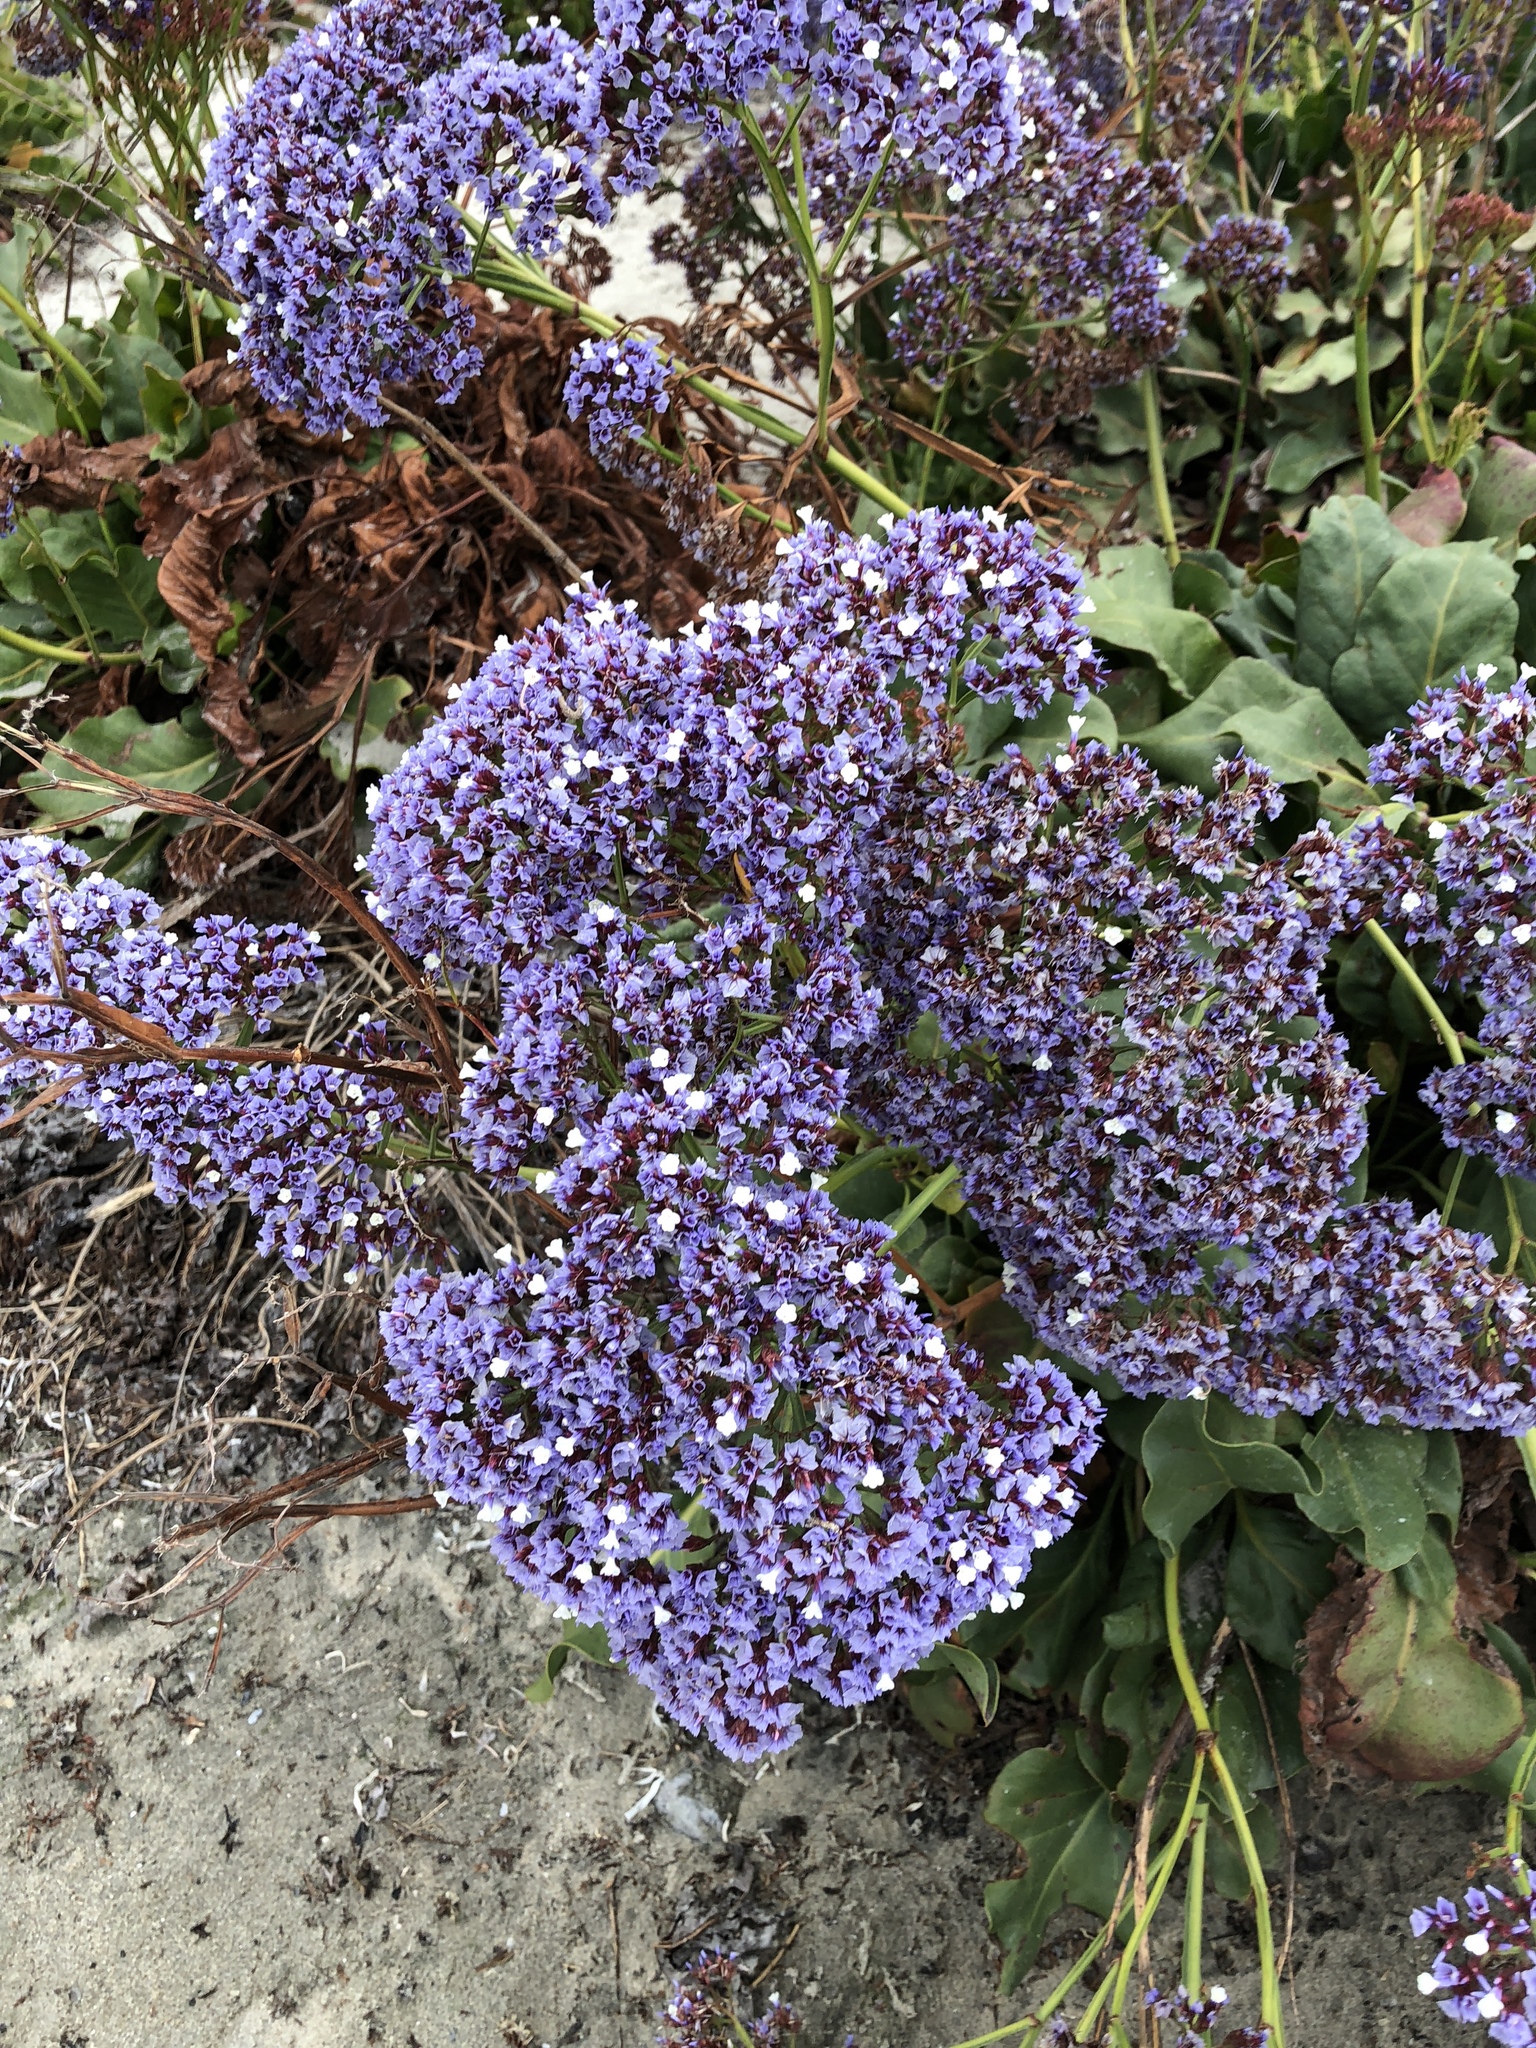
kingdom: Plantae
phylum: Tracheophyta
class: Magnoliopsida
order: Caryophyllales
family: Plumbaginaceae
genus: Limonium
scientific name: Limonium perezii
